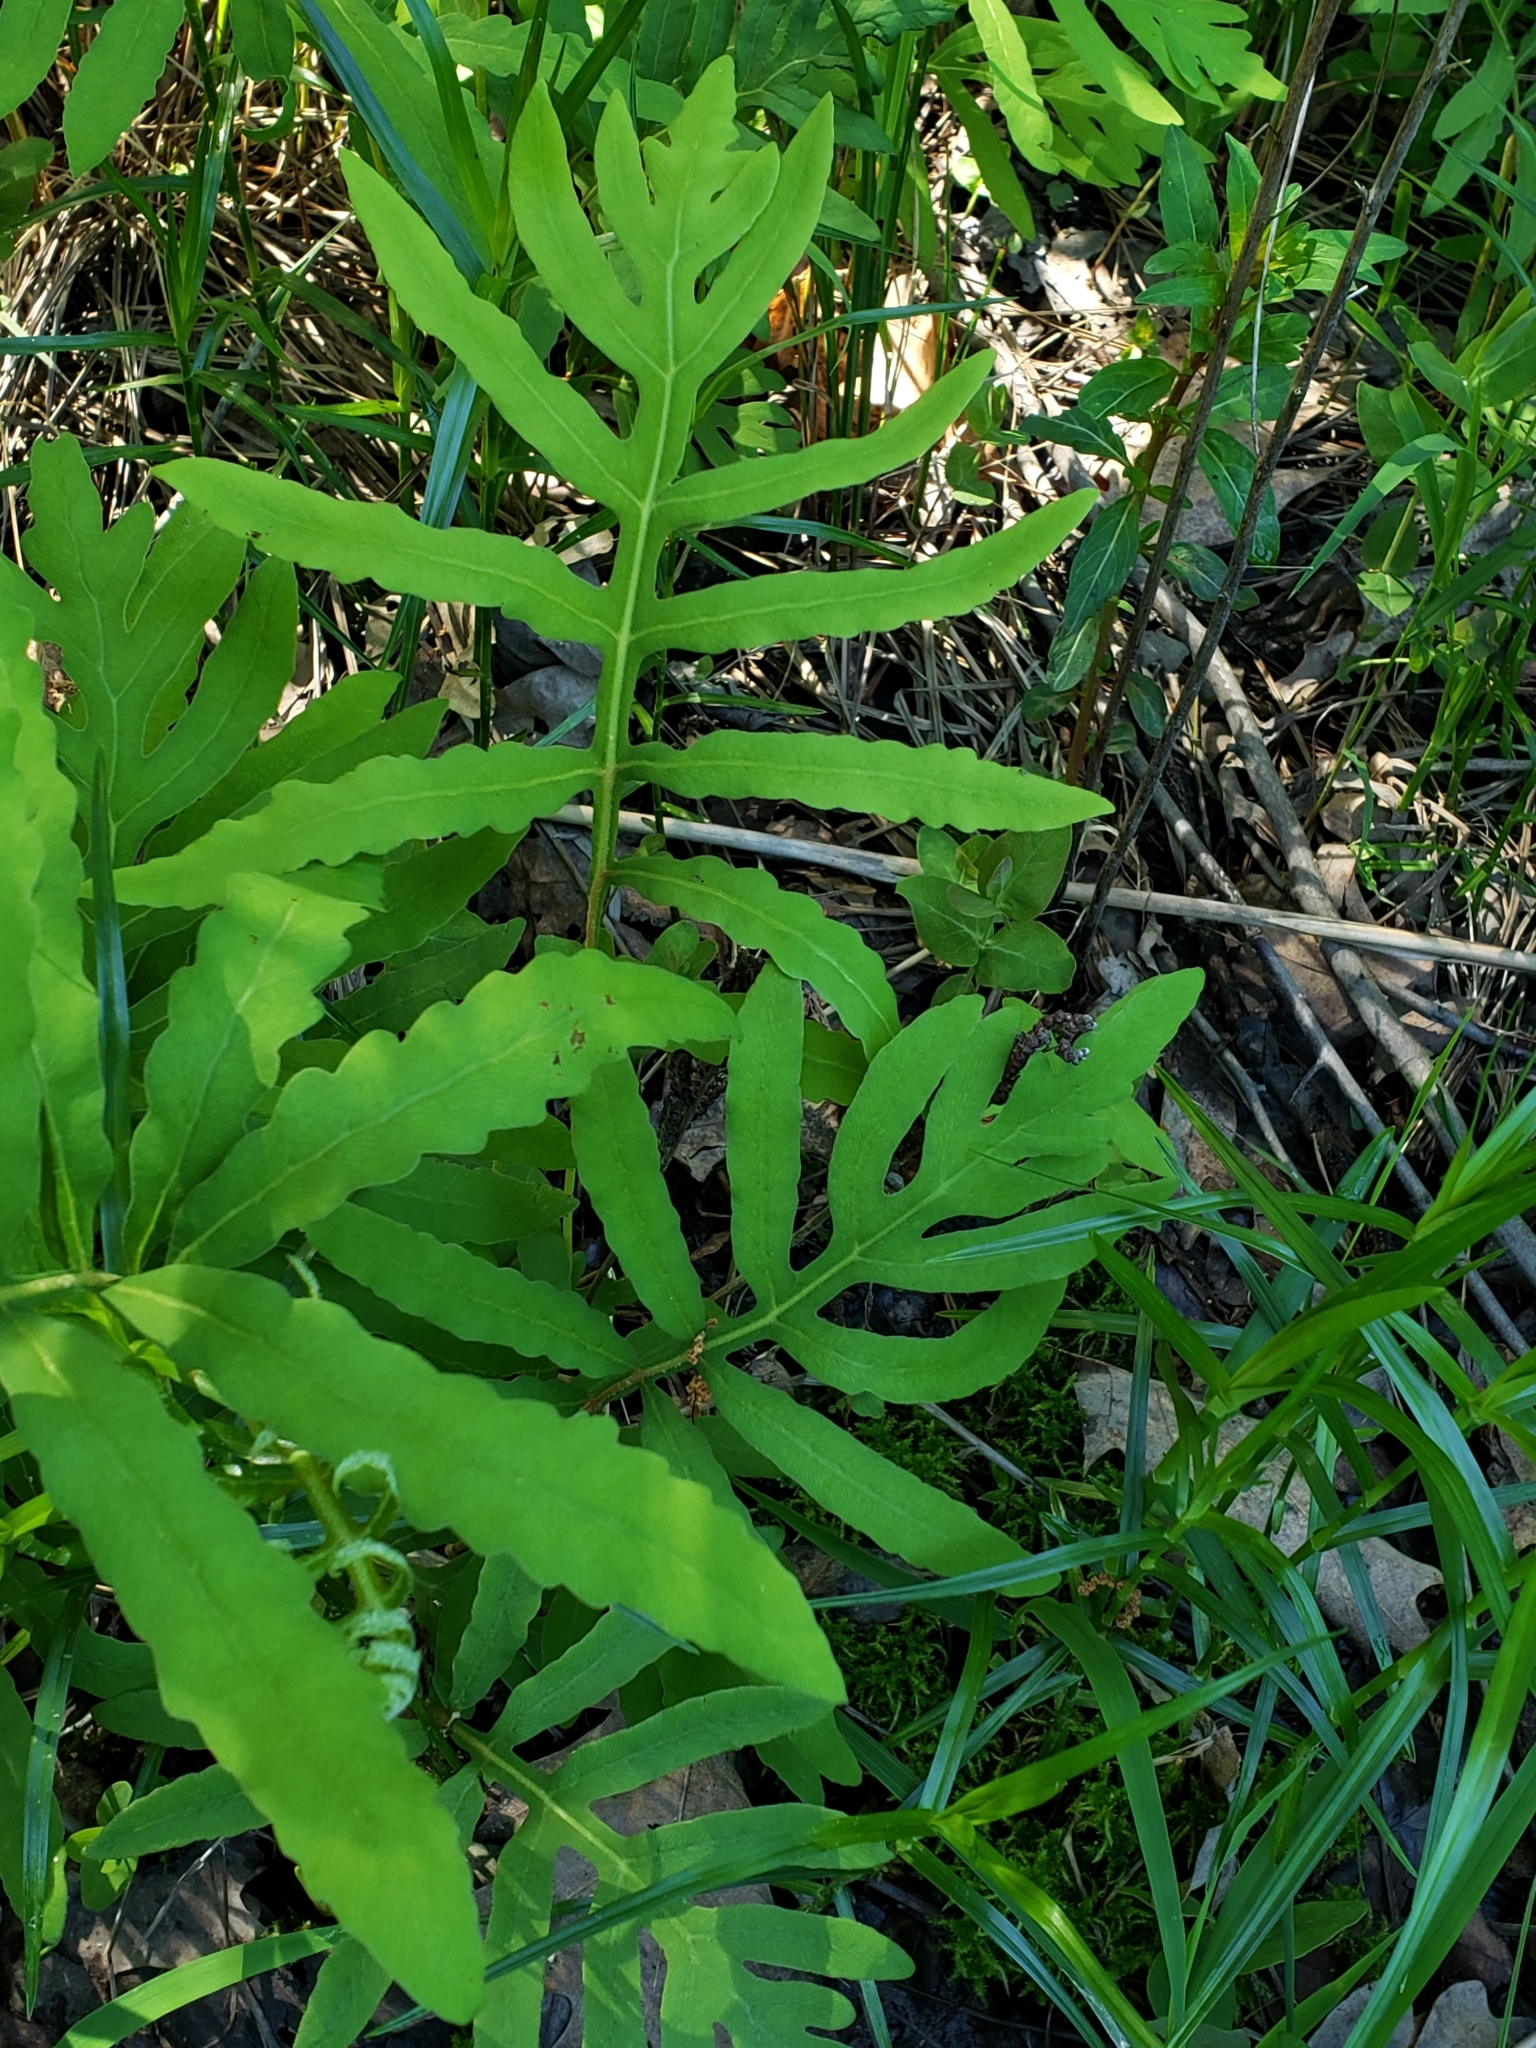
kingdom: Plantae
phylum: Tracheophyta
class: Polypodiopsida
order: Polypodiales
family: Onocleaceae
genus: Onoclea
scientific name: Onoclea sensibilis
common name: Sensitive fern
